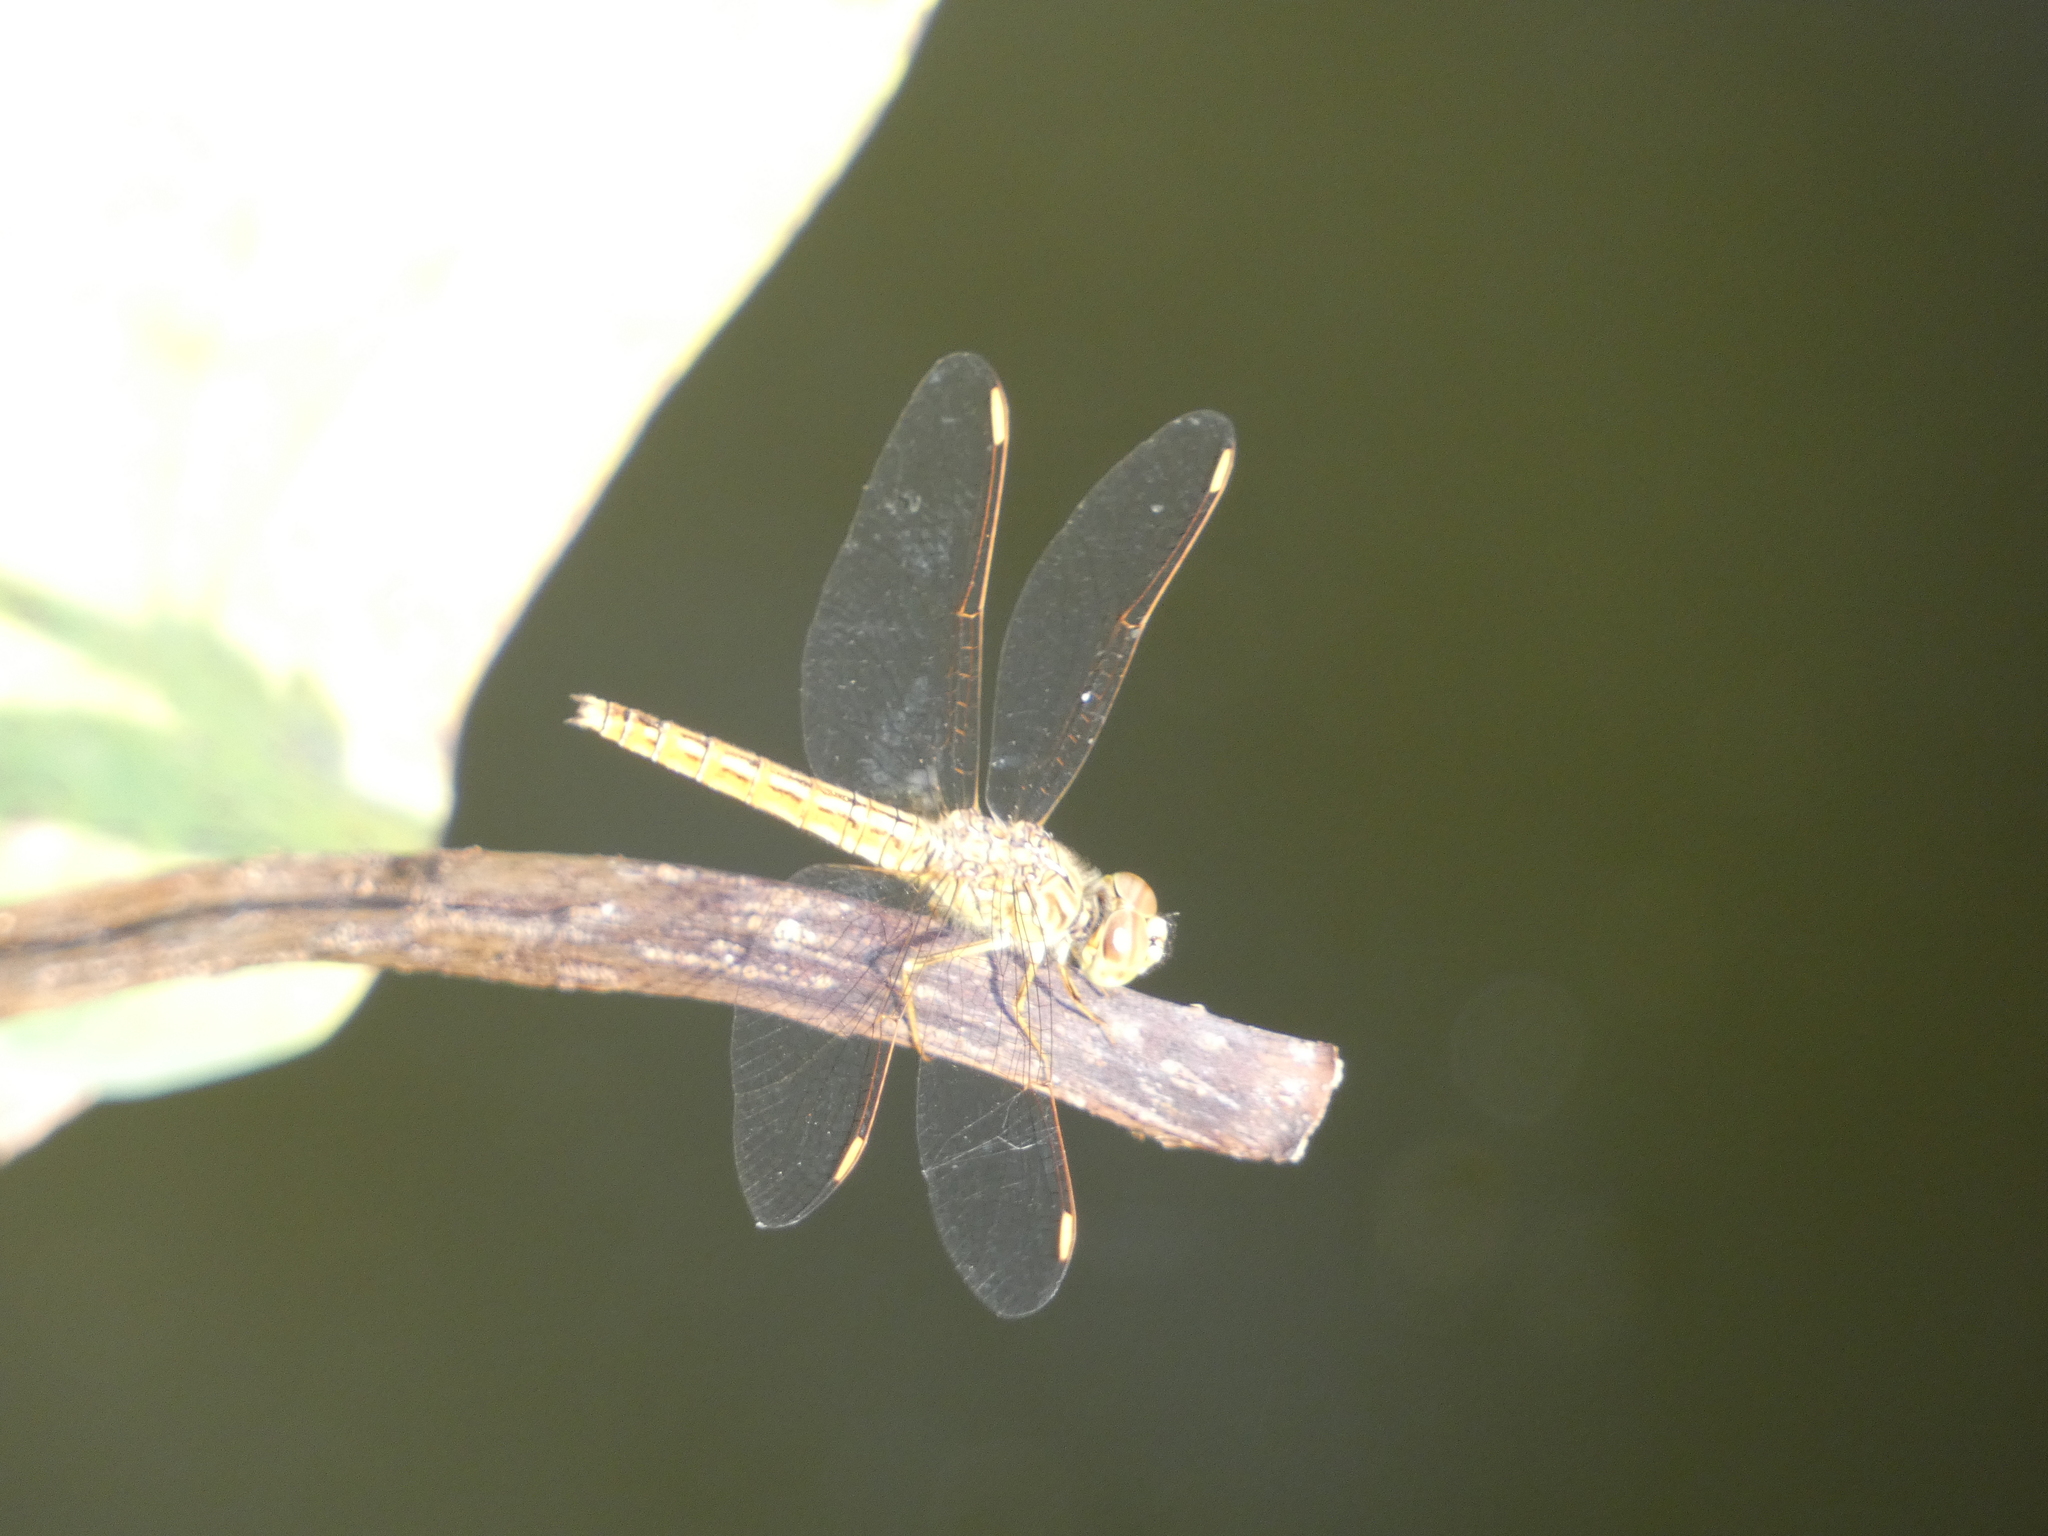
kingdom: Animalia
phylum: Arthropoda
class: Insecta
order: Odonata
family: Libellulidae
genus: Brachythemis
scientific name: Brachythemis contaminata
